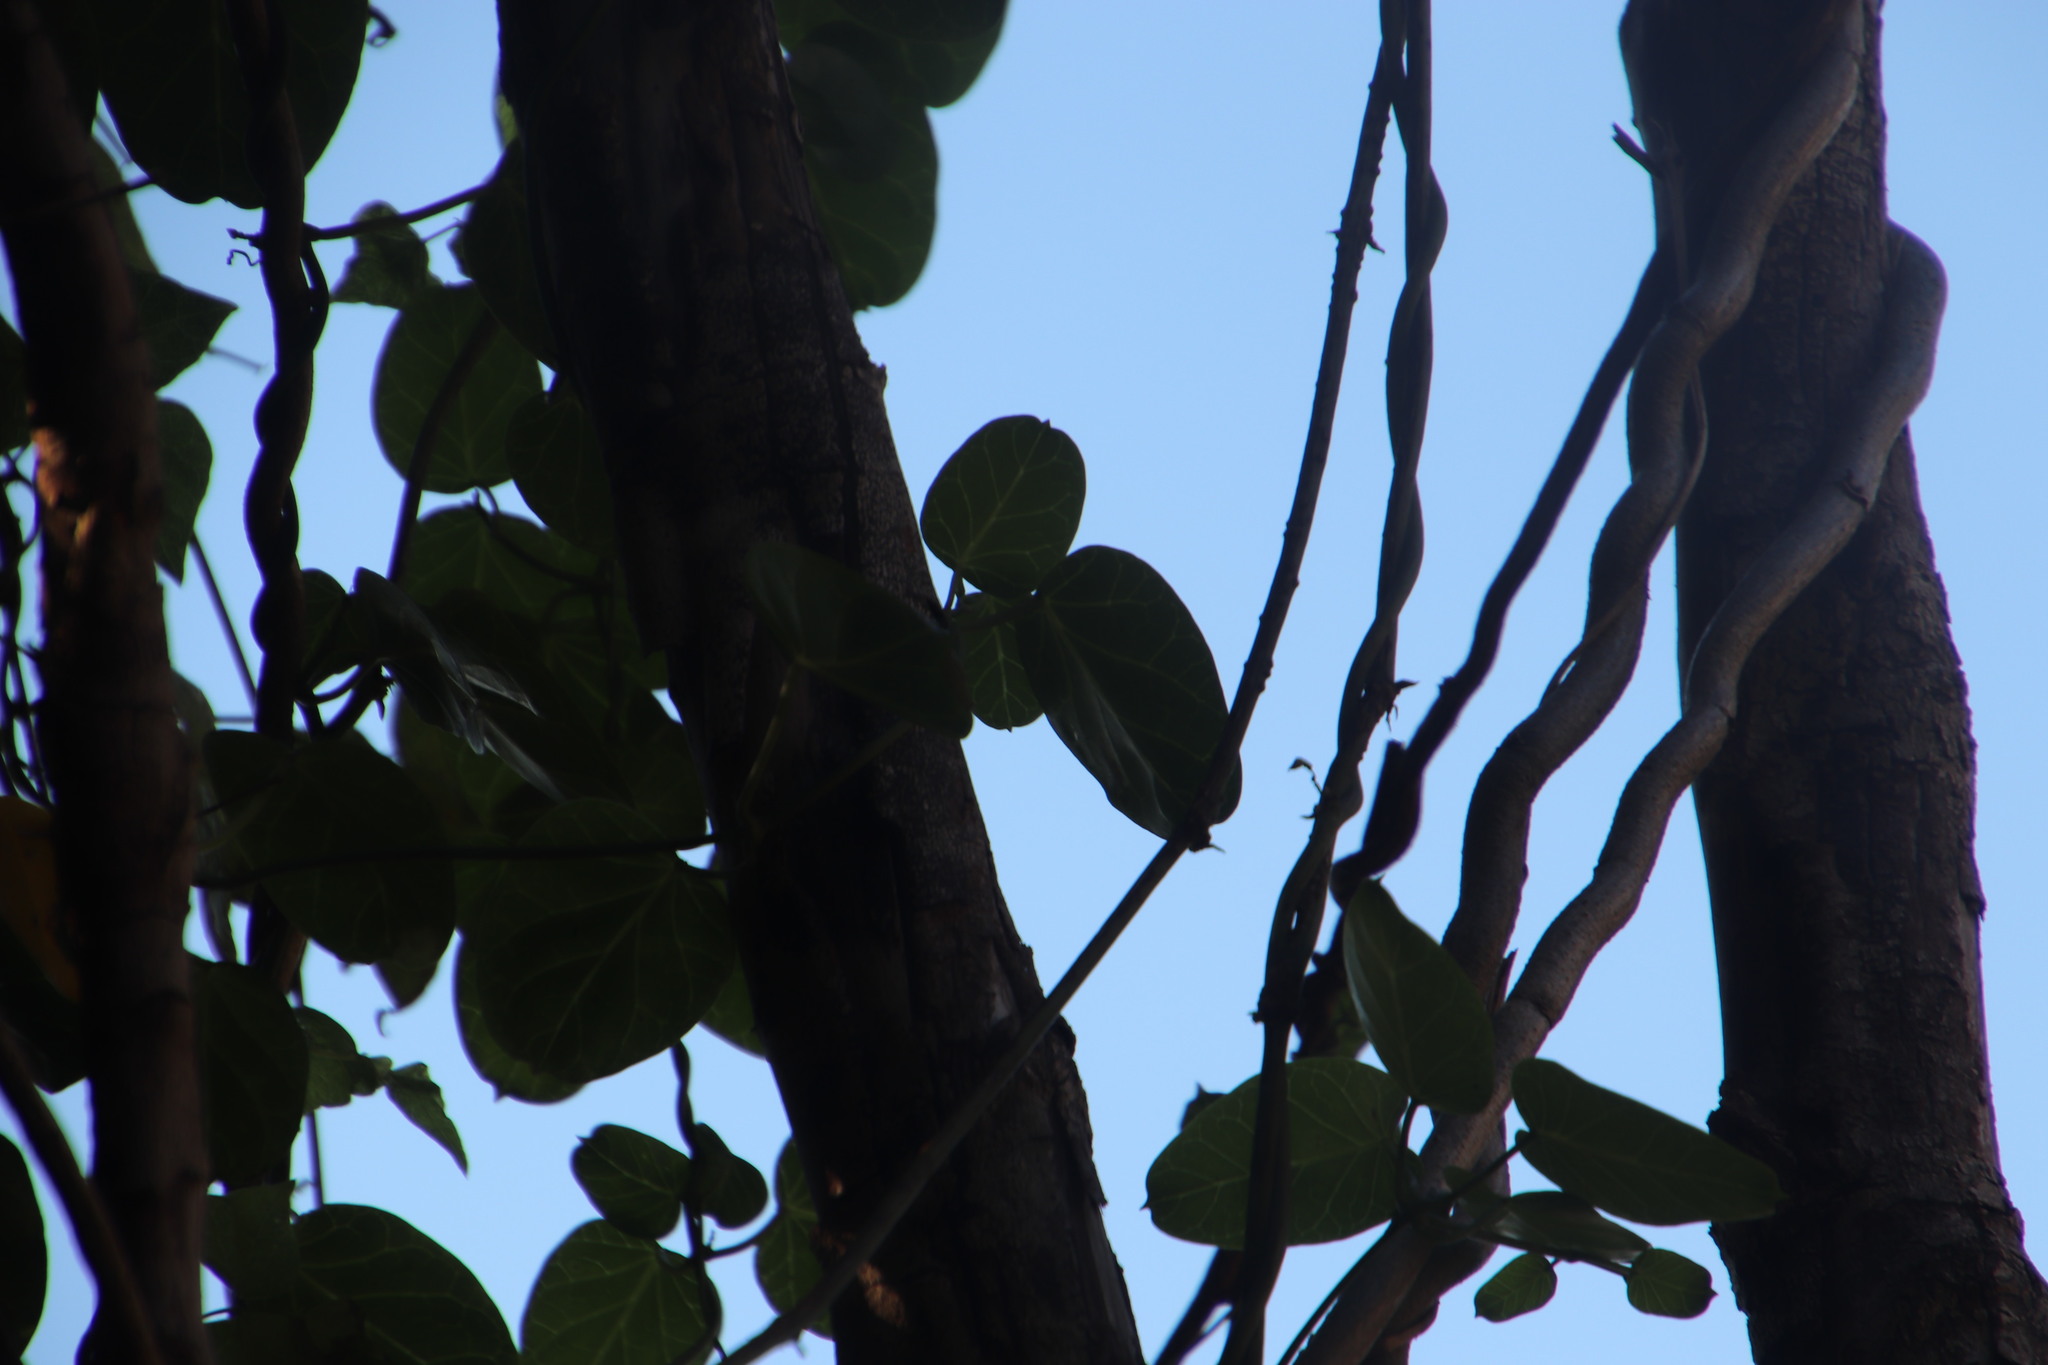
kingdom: Plantae
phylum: Tracheophyta
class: Magnoliopsida
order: Gentianales
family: Apocynaceae
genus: Cynanchum
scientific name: Cynanchum obtusifolium
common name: Monkey-rope
